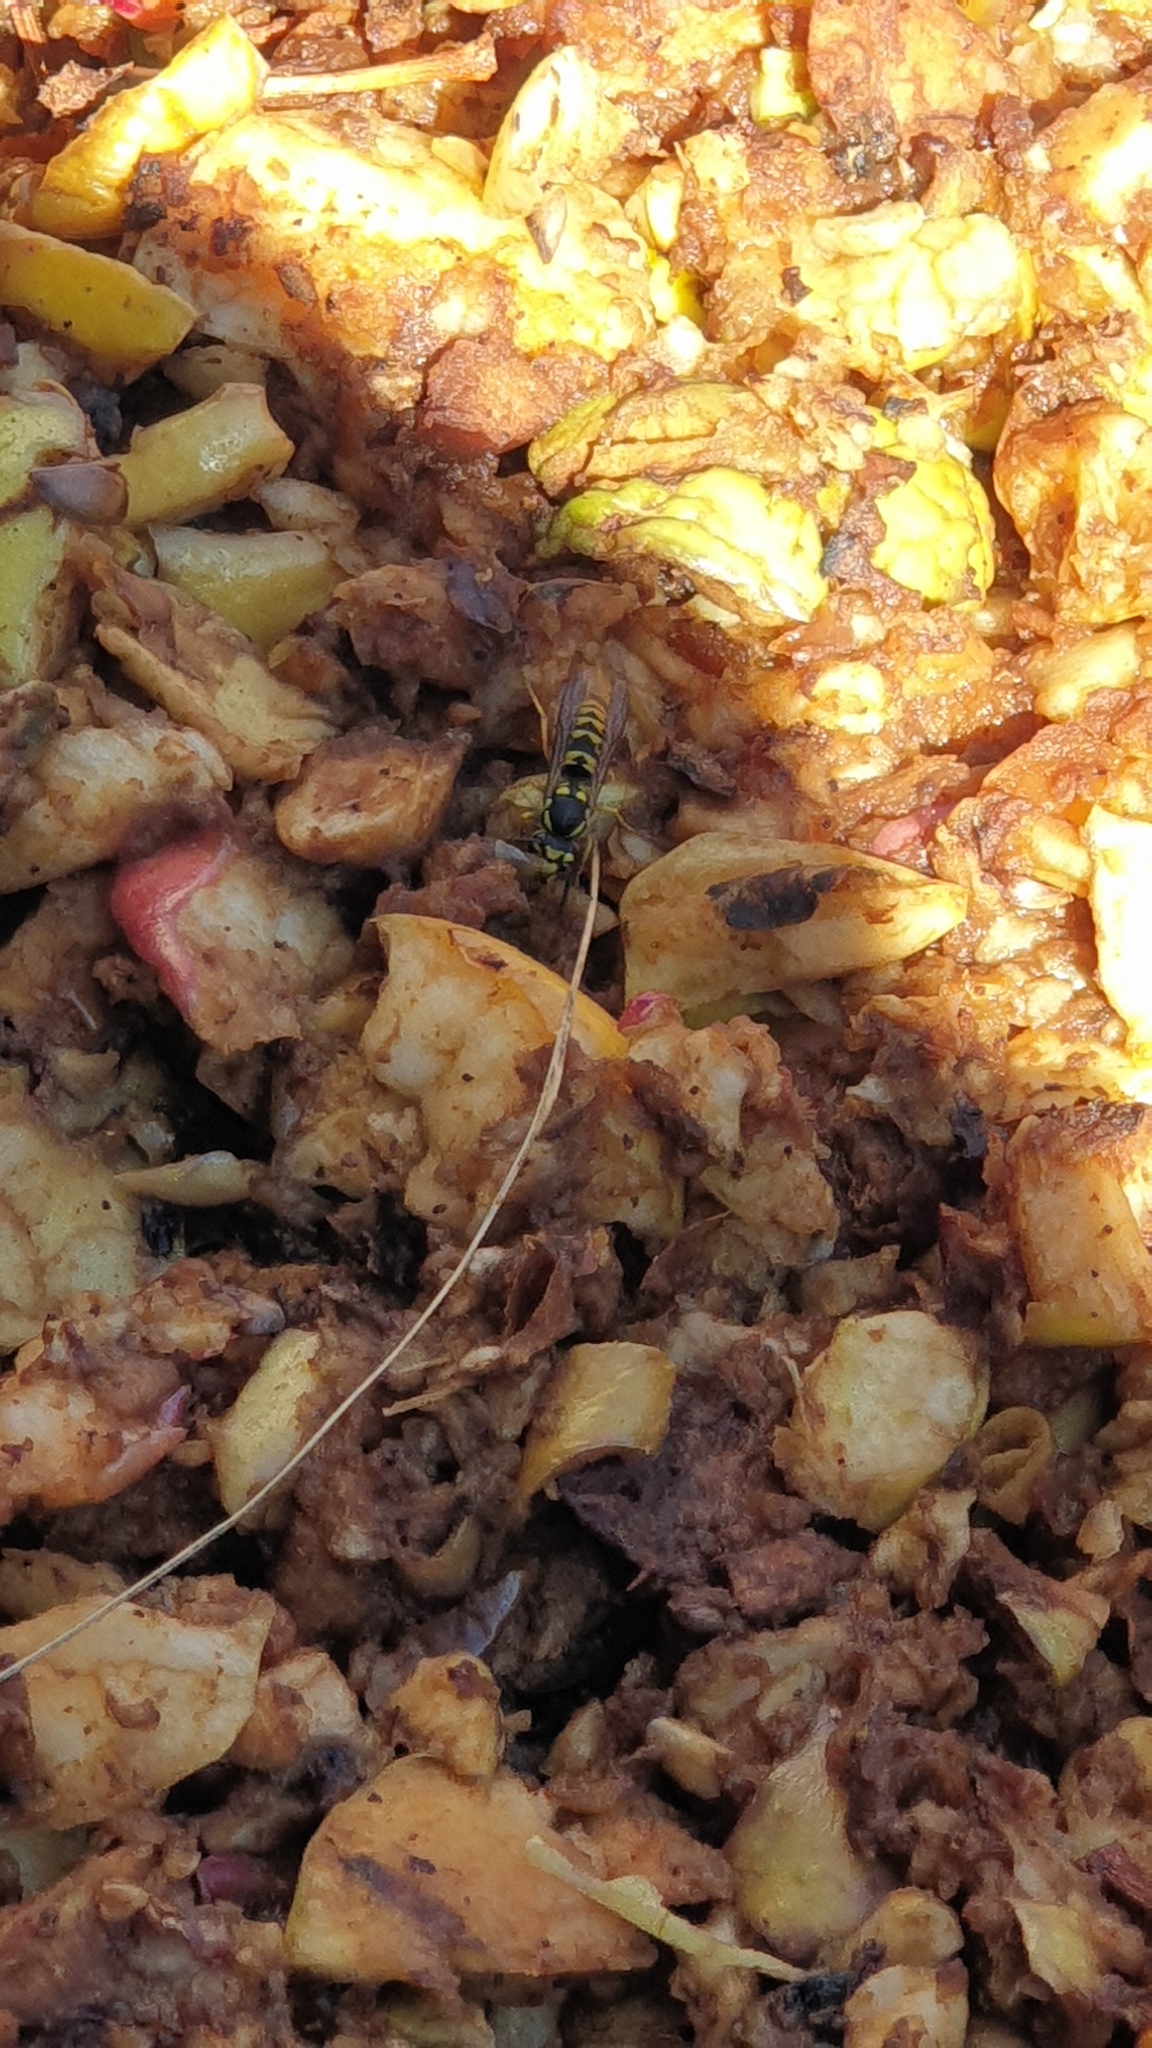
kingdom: Animalia
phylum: Arthropoda
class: Insecta
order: Hymenoptera
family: Vespidae
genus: Vespula
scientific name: Vespula germanica
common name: German wasp
